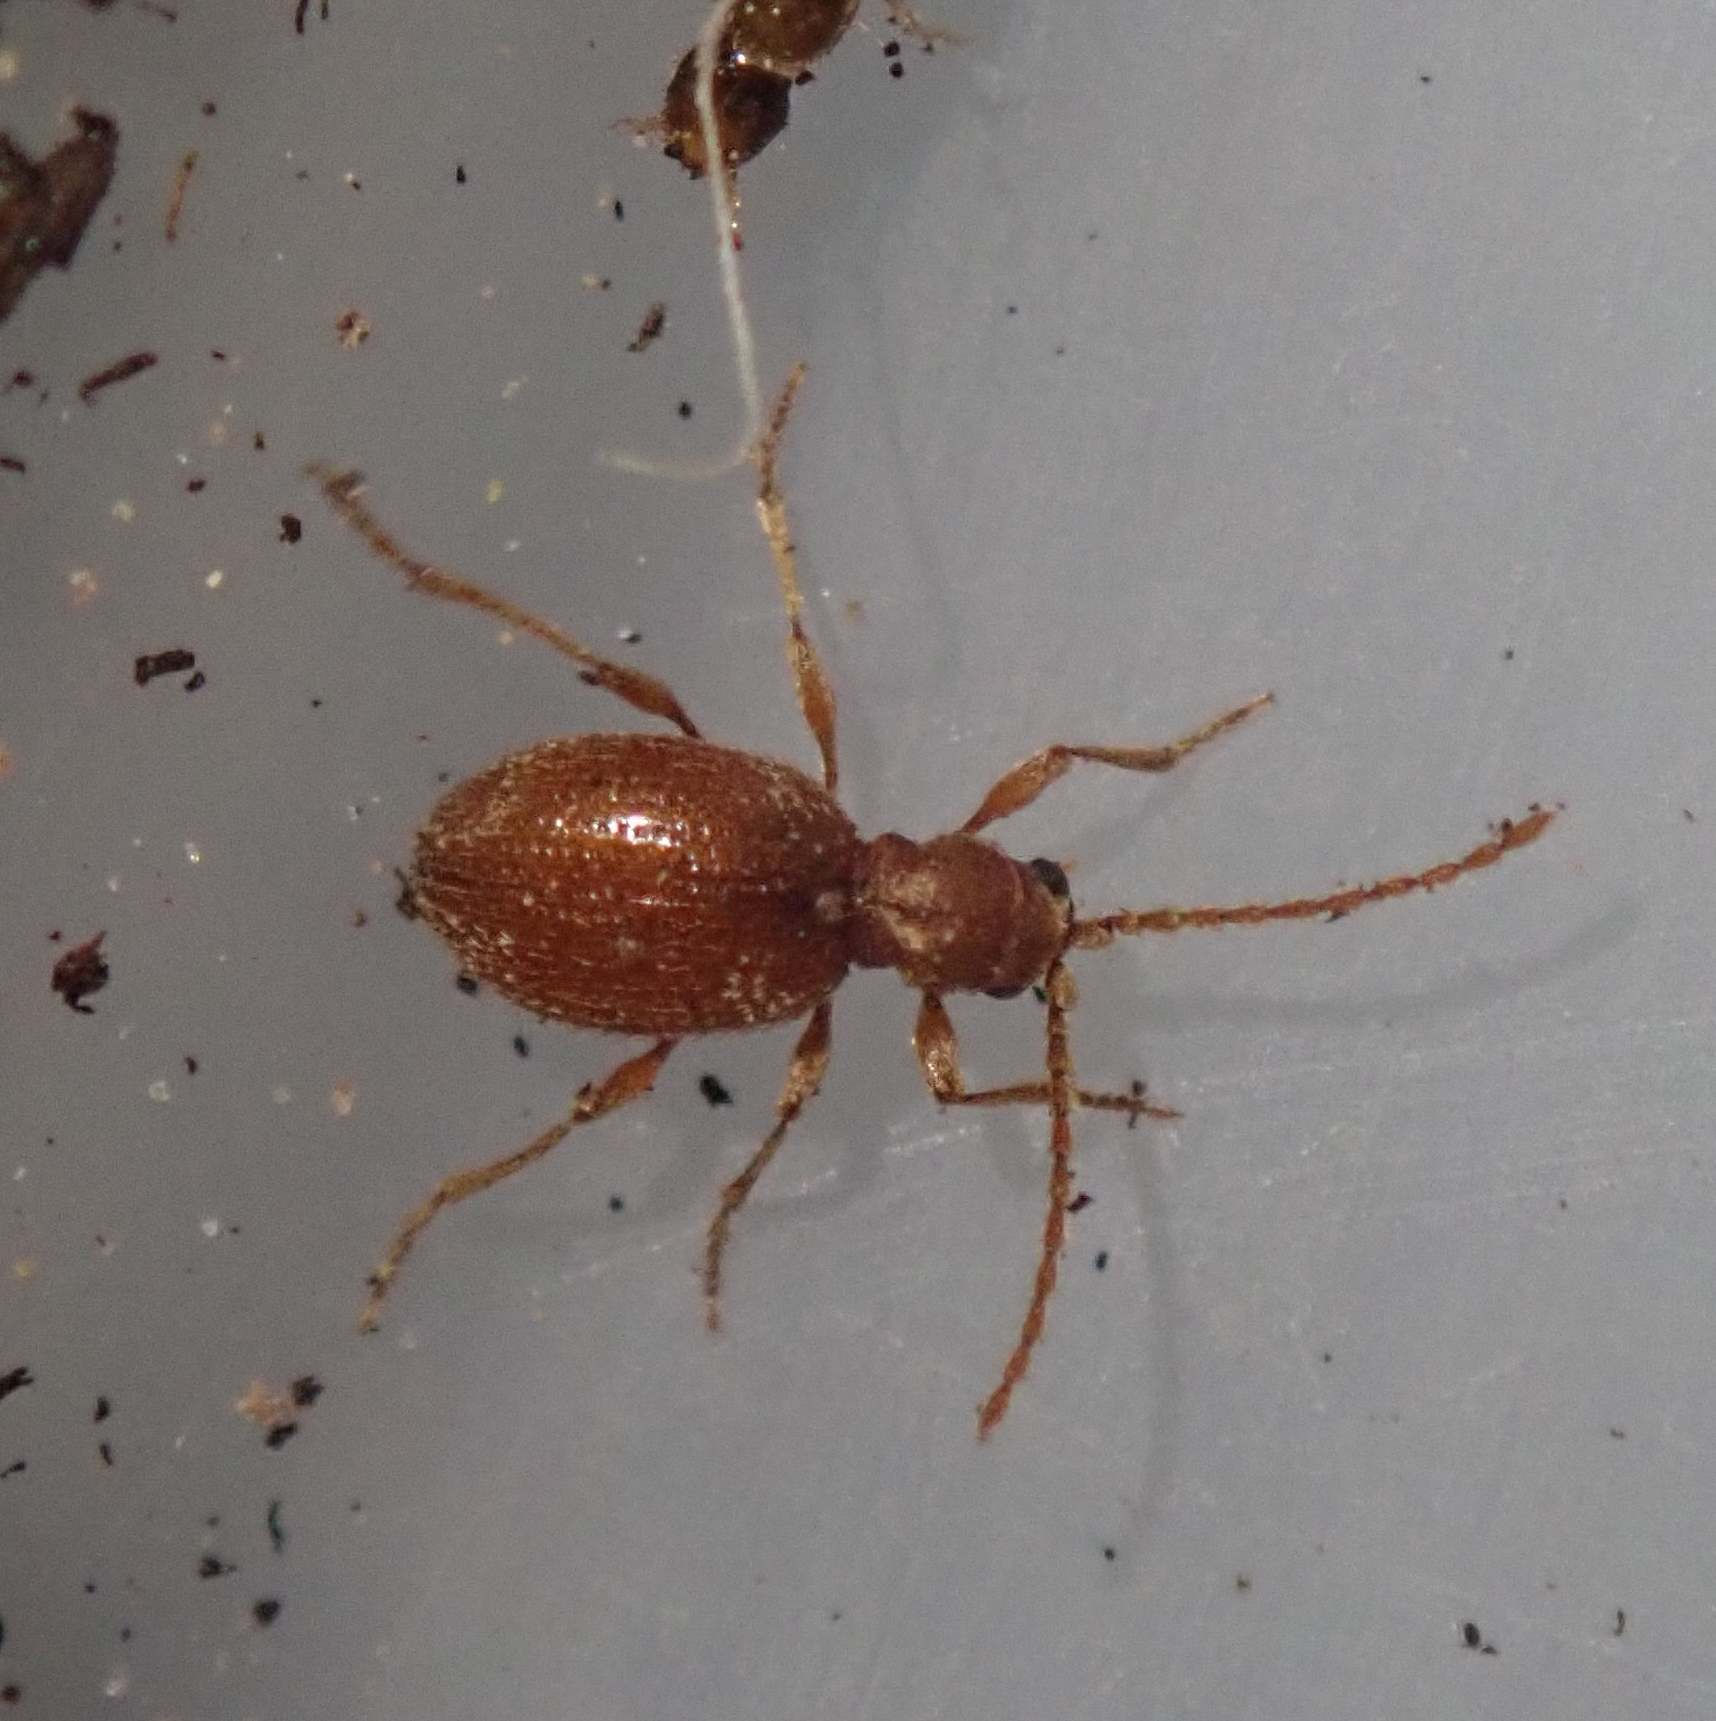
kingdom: Animalia
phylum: Arthropoda
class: Insecta
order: Coleoptera
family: Ptinidae
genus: Ptinus
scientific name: Ptinus fur
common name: White-marked spider beetle
